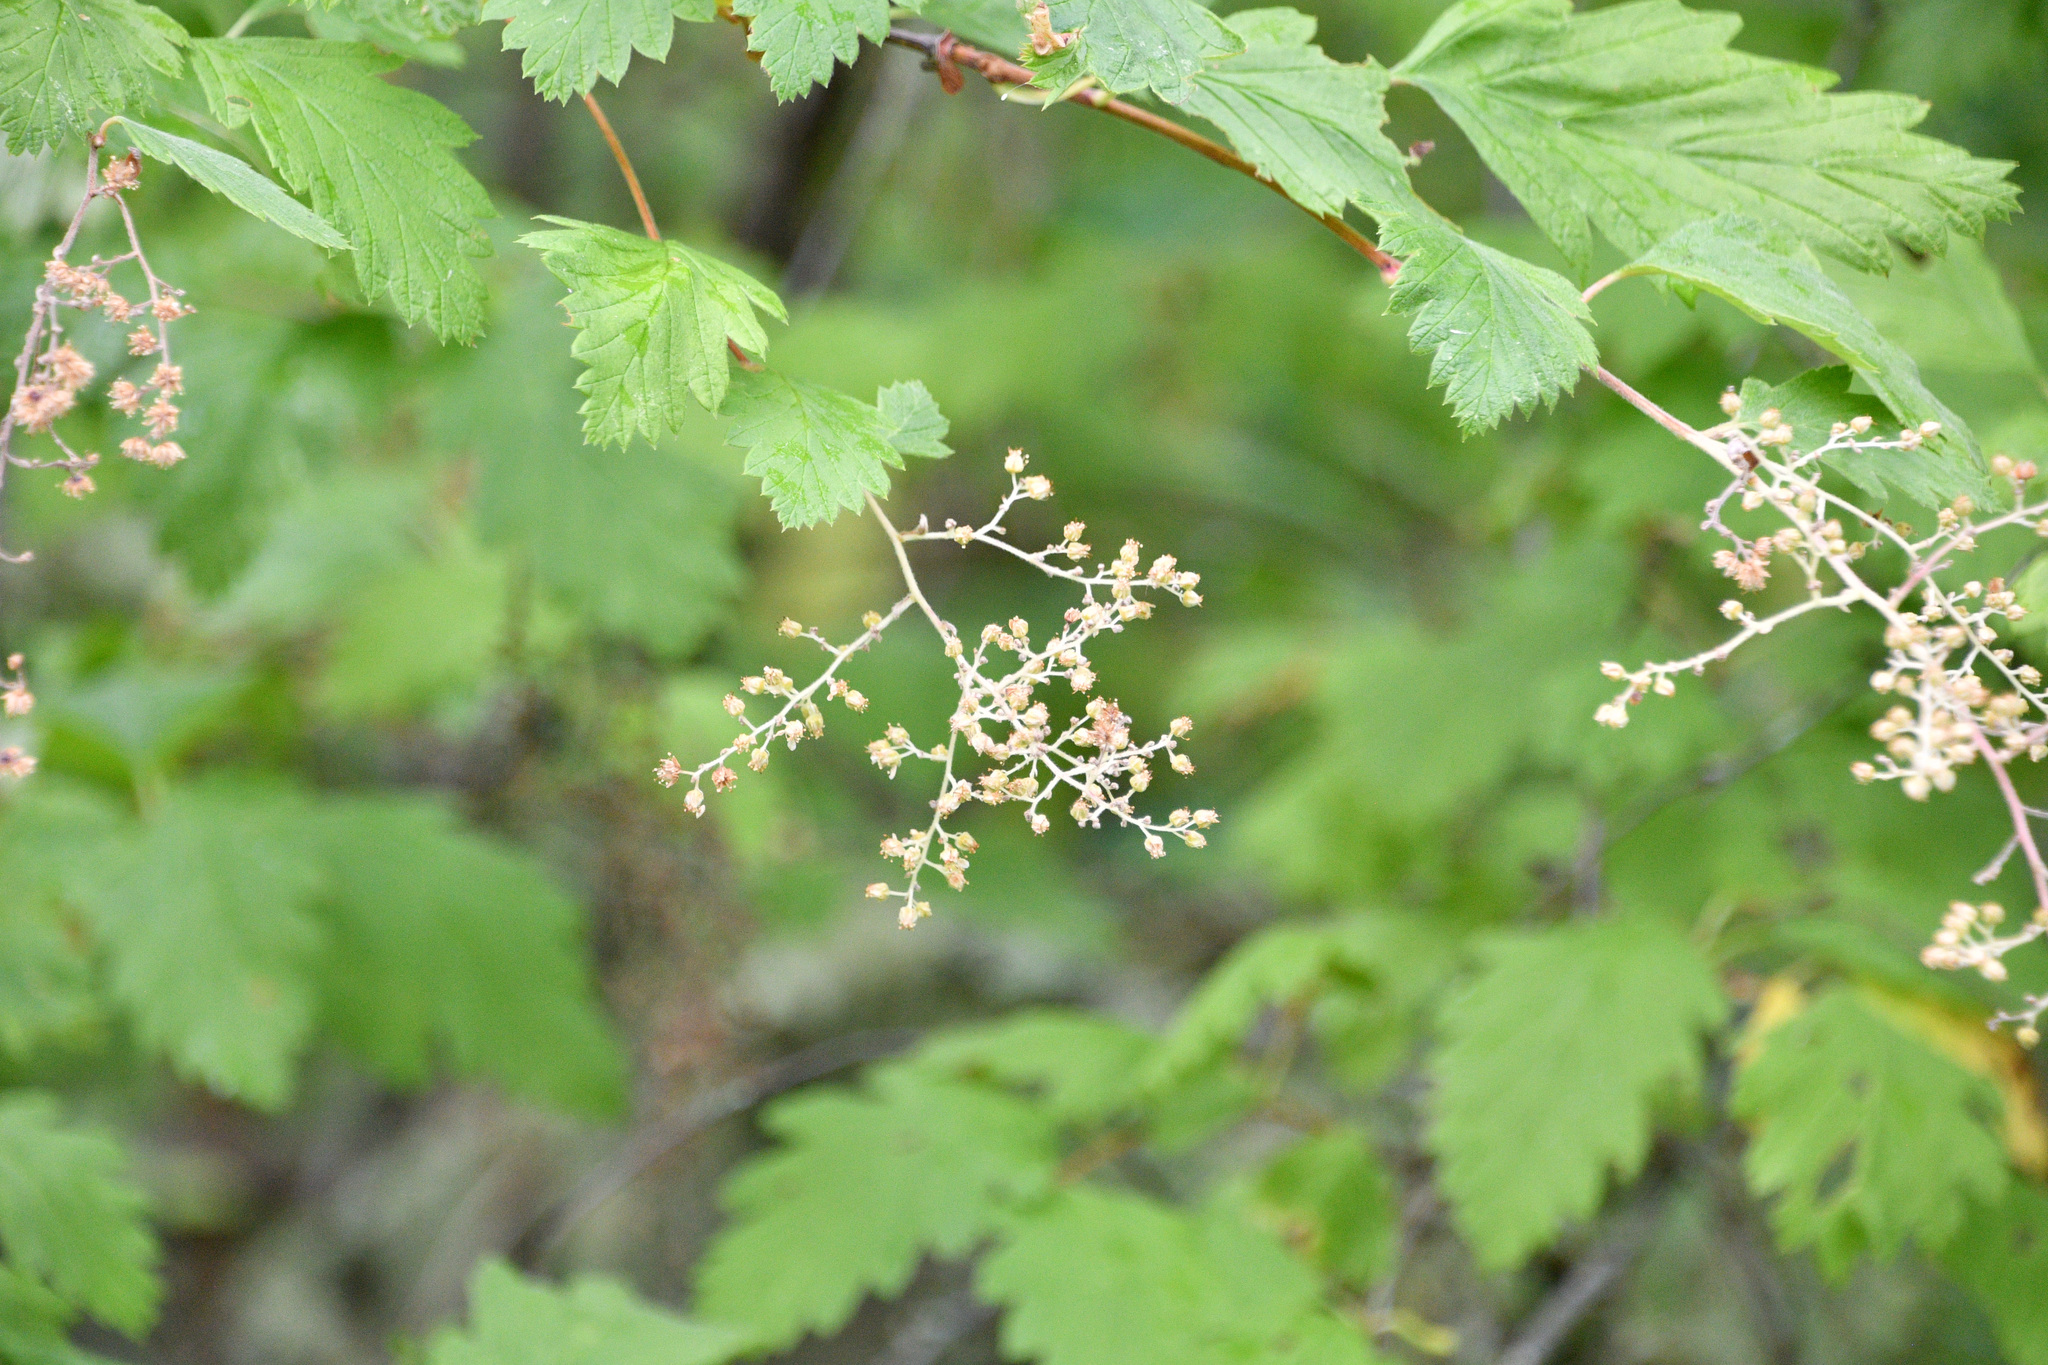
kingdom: Plantae
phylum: Tracheophyta
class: Magnoliopsida
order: Rosales
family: Rosaceae
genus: Holodiscus
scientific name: Holodiscus discolor
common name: Oceanspray
